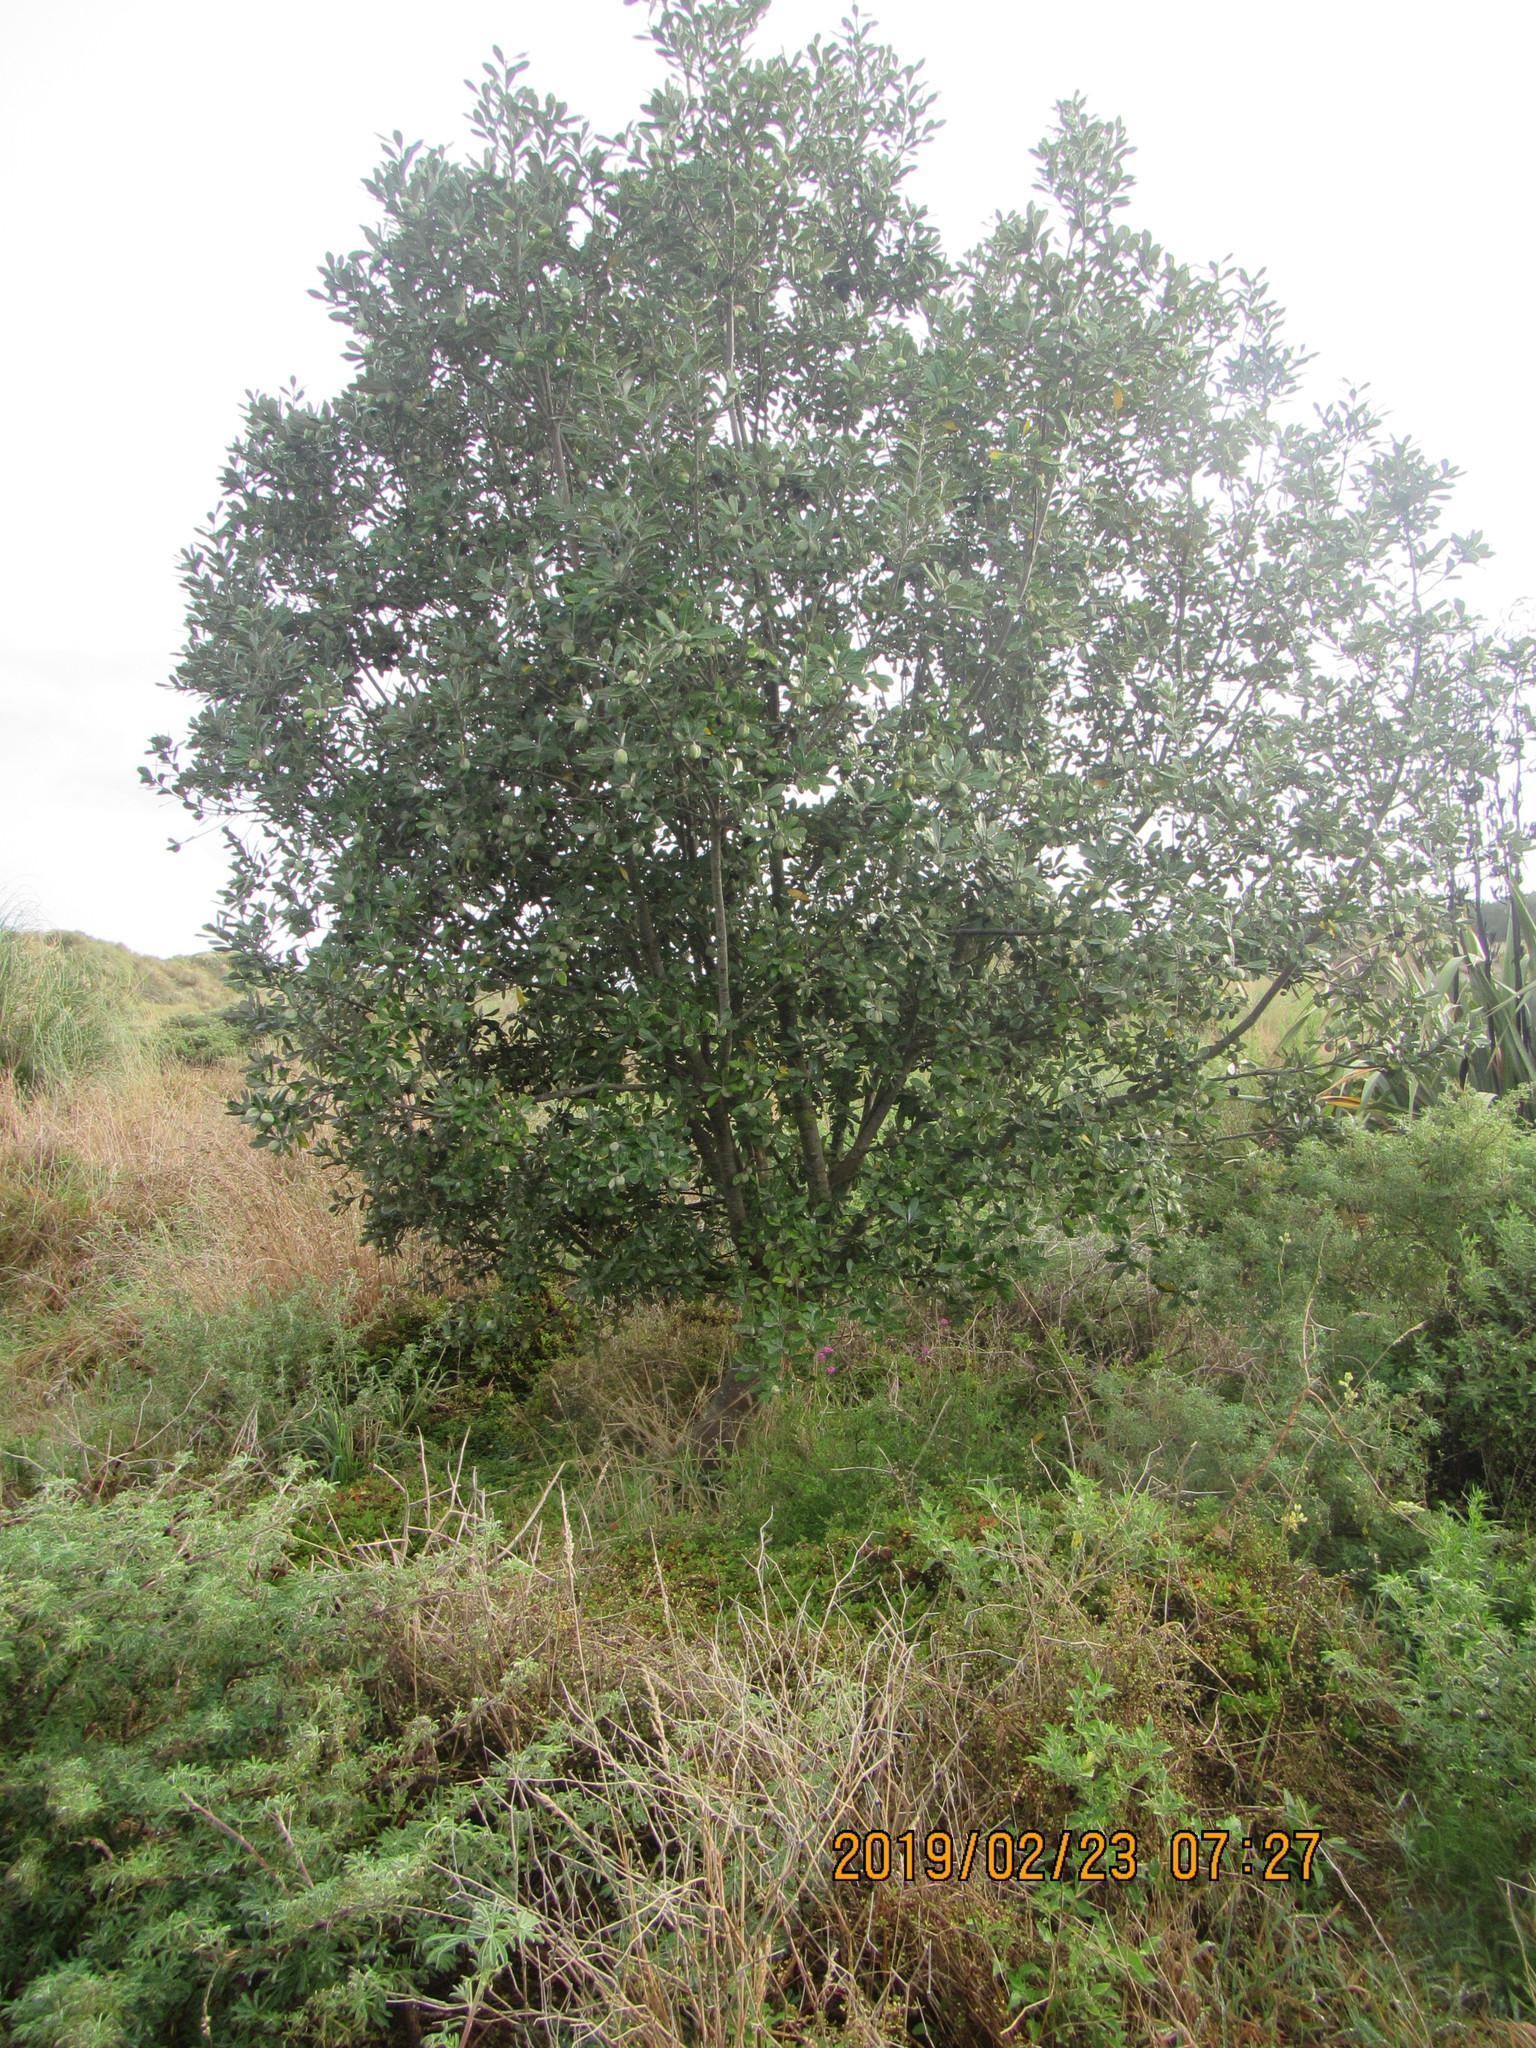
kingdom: Plantae
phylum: Tracheophyta
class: Magnoliopsida
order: Apiales
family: Pittosporaceae
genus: Pittosporum
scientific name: Pittosporum crassifolium
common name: Karo
